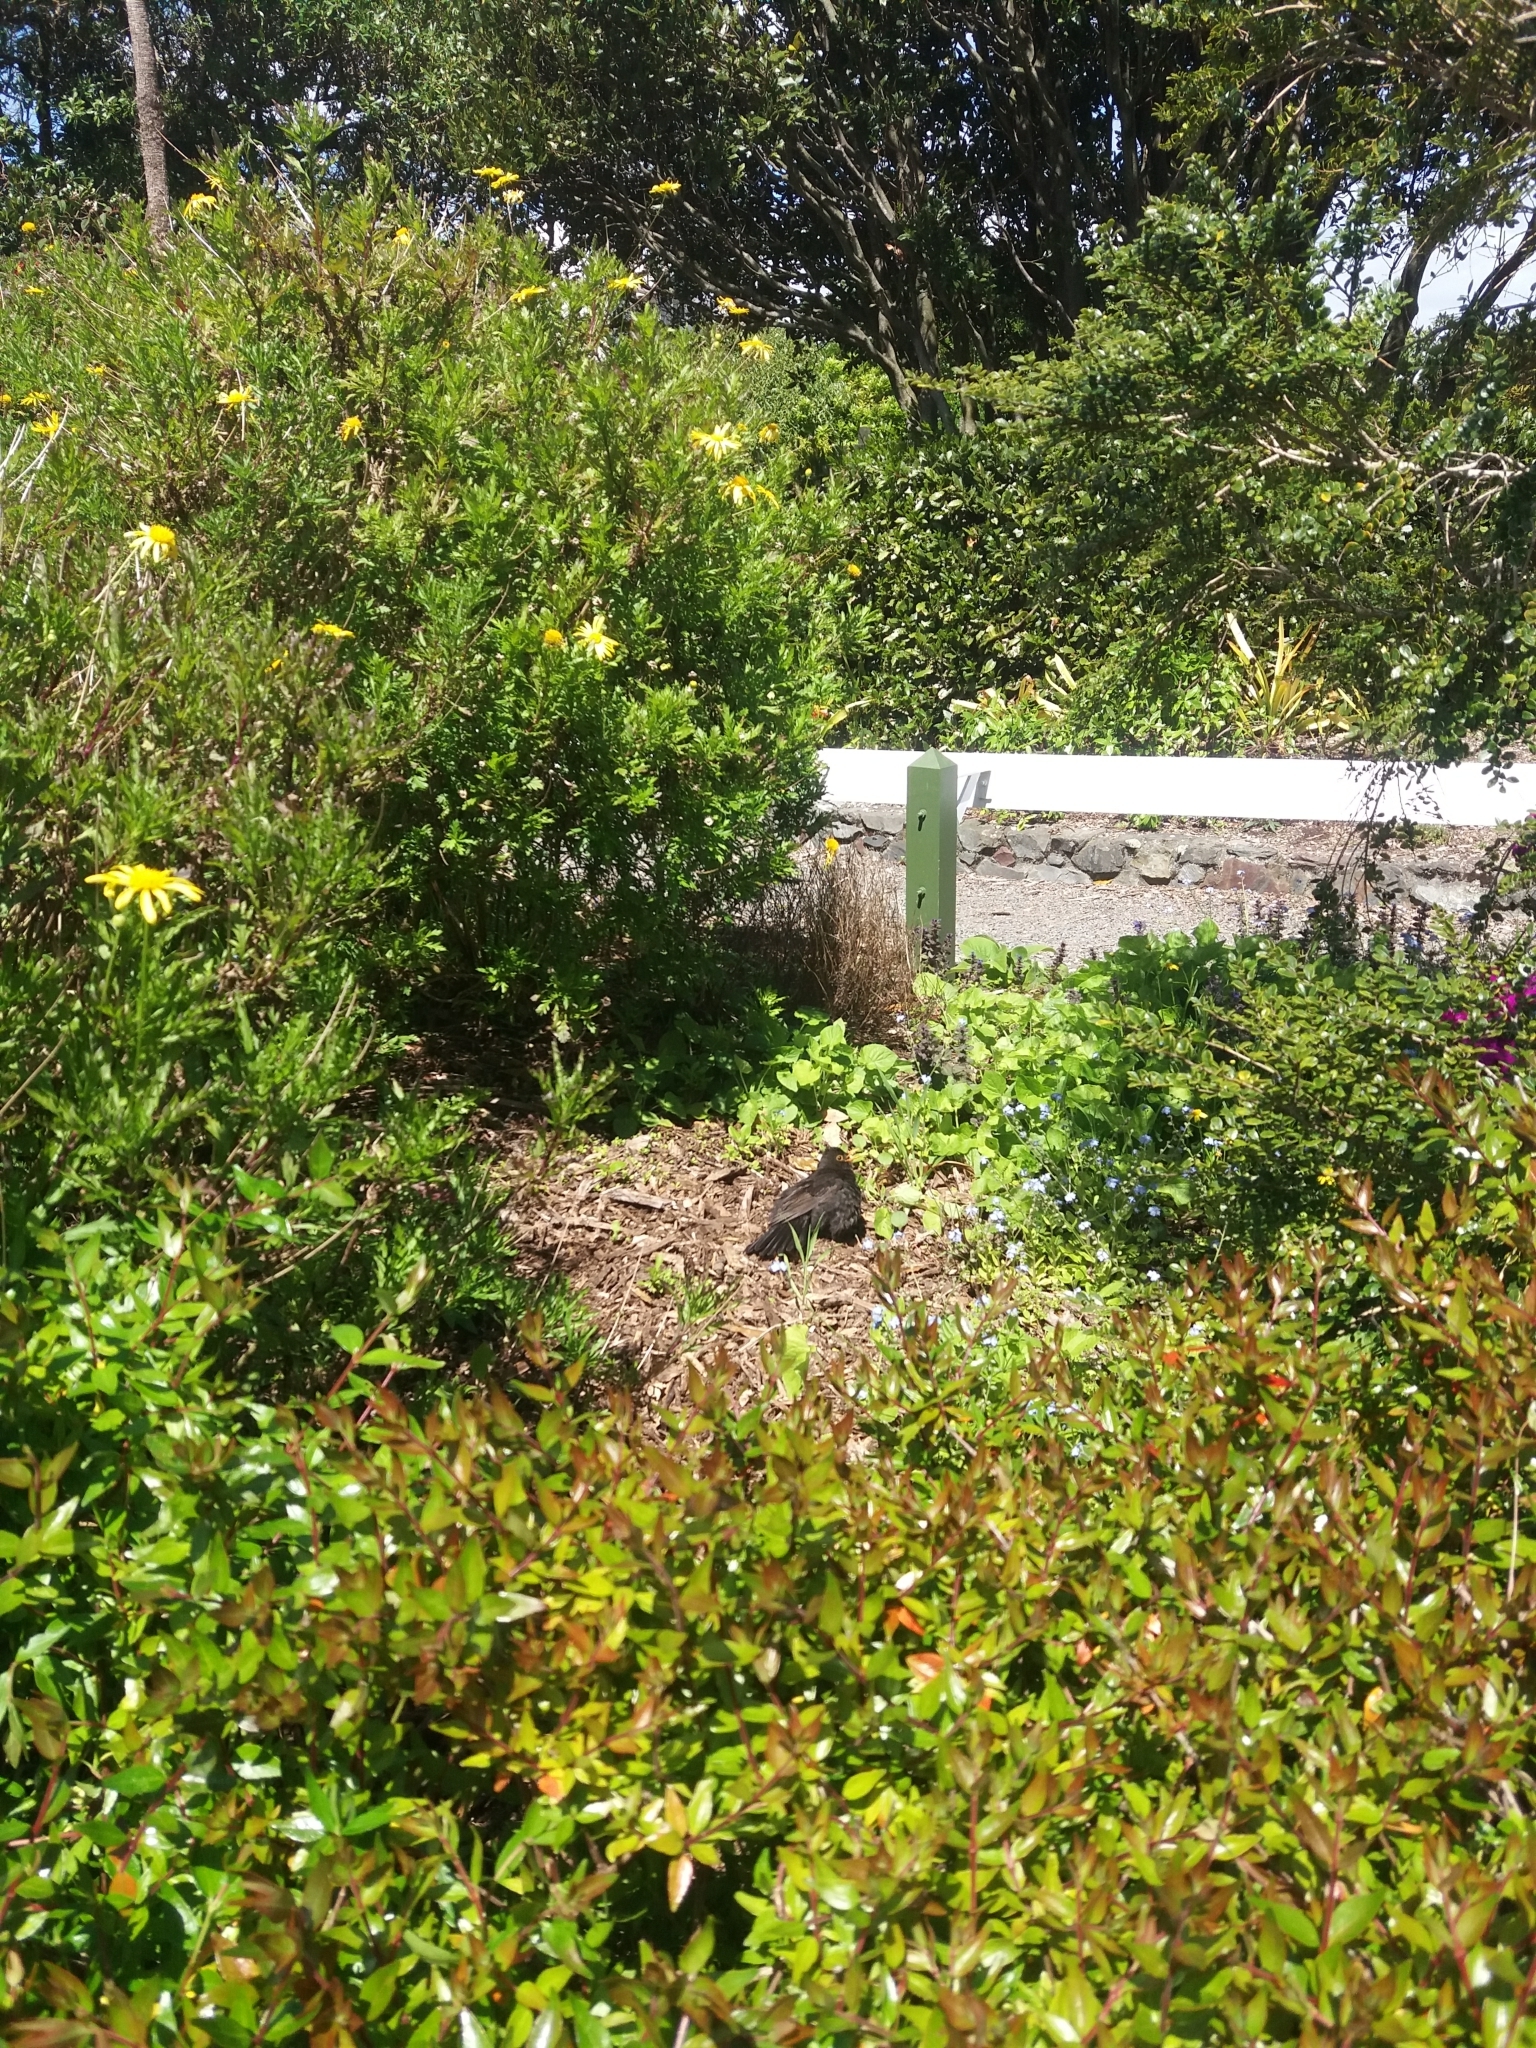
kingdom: Animalia
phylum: Chordata
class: Aves
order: Passeriformes
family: Turdidae
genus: Turdus
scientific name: Turdus merula
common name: Common blackbird
